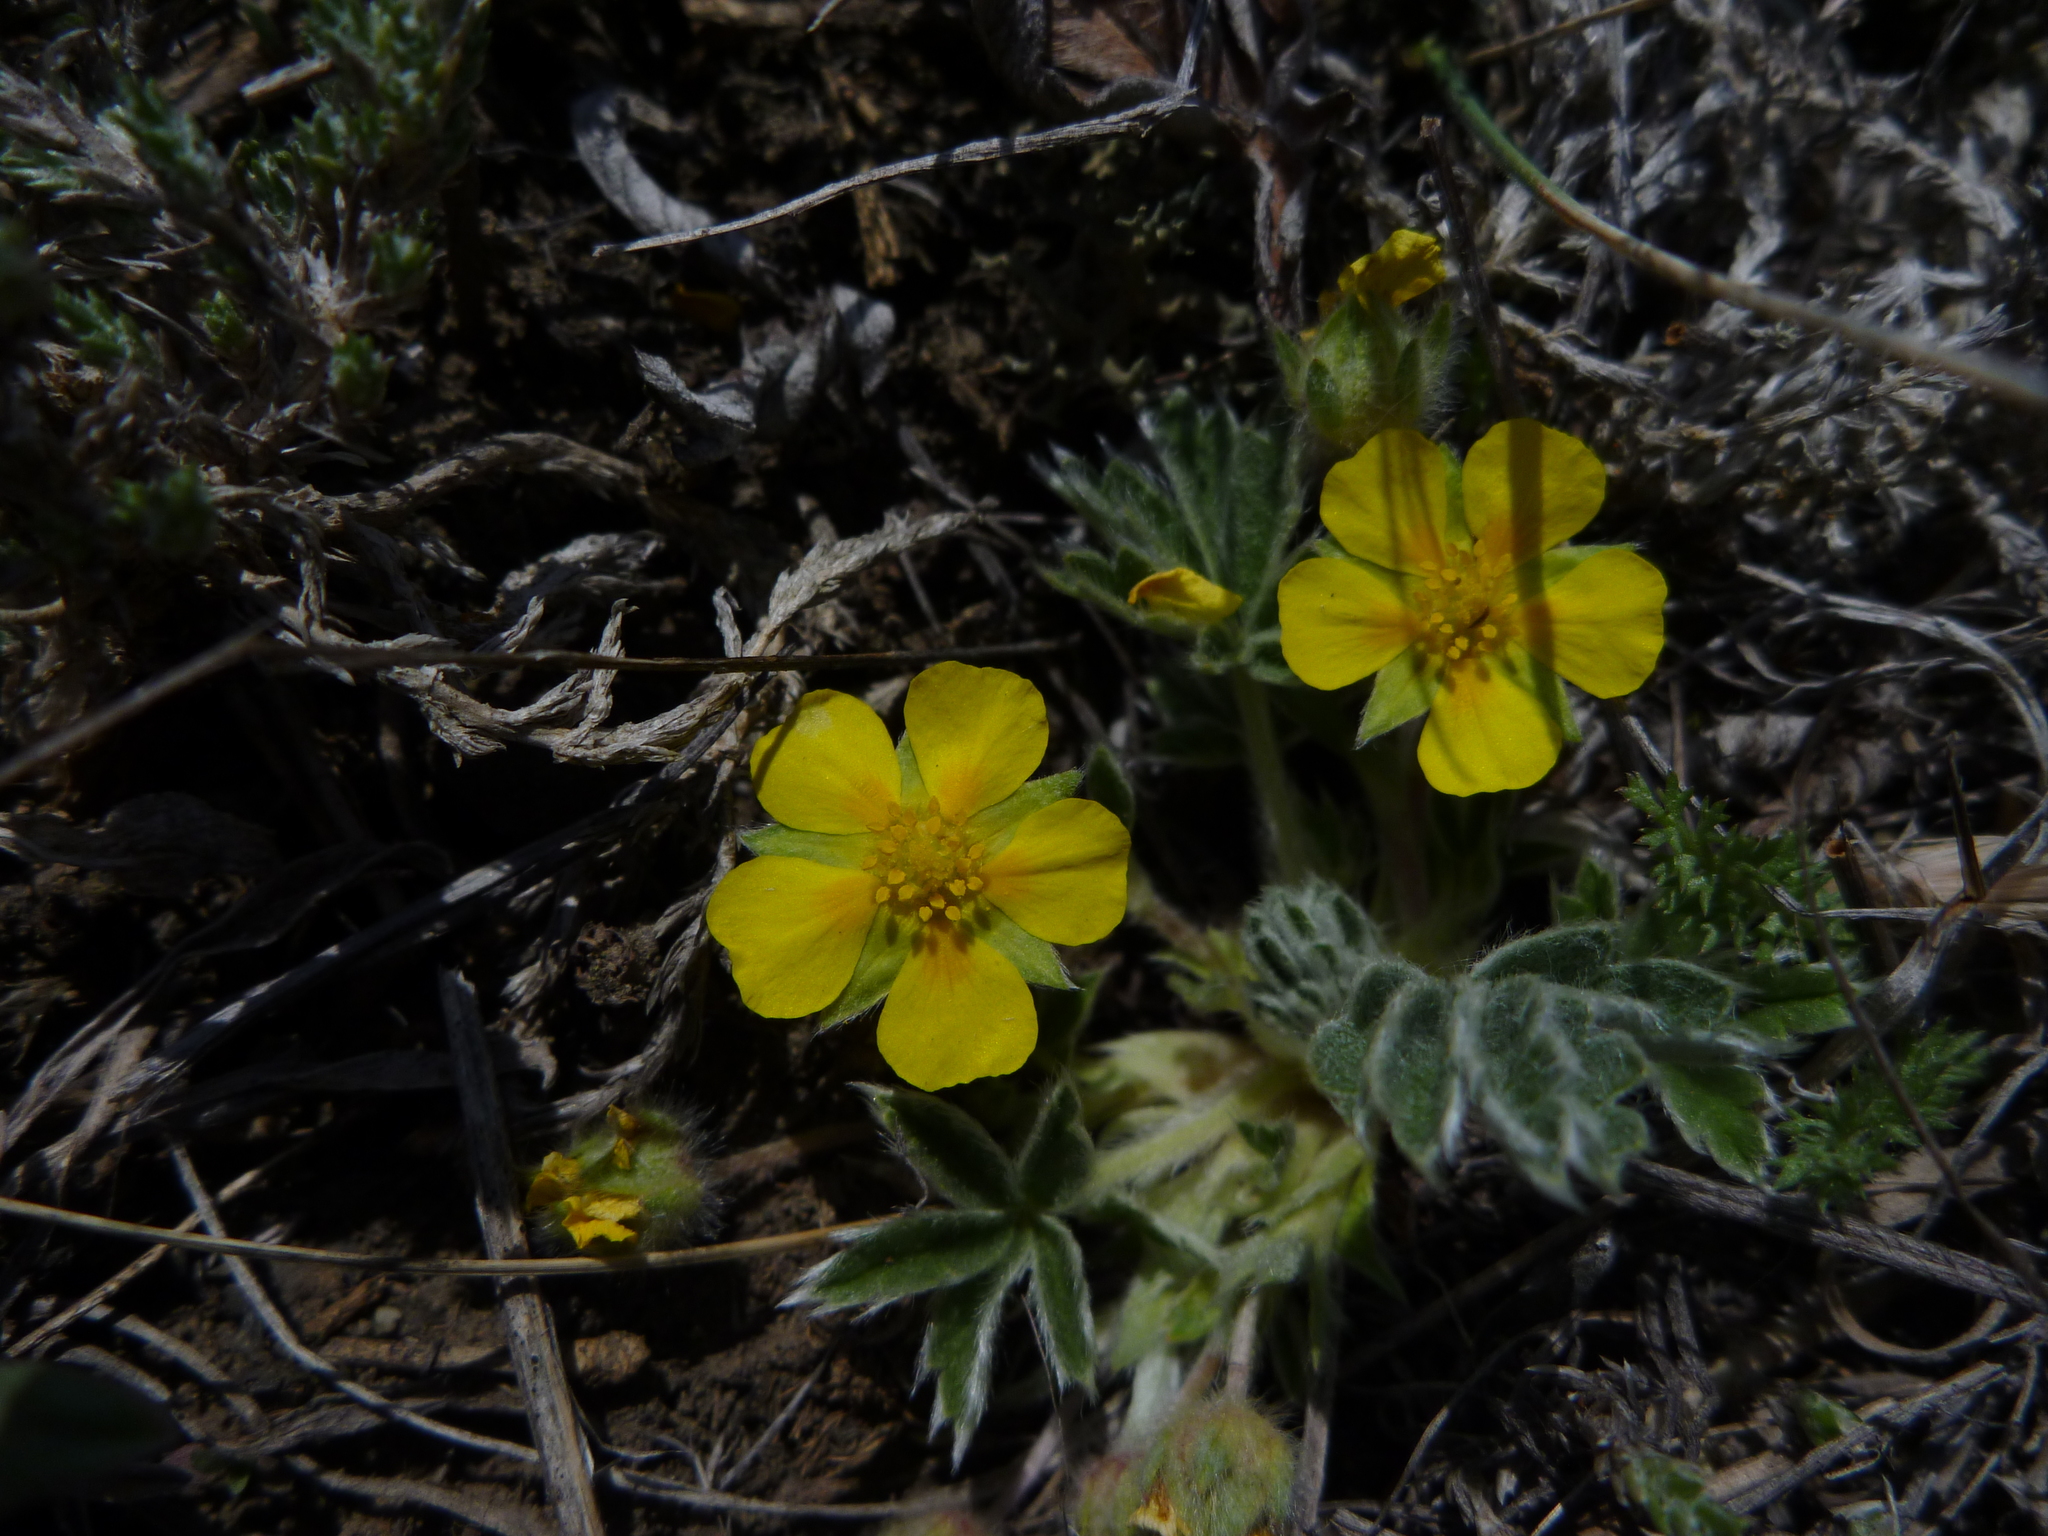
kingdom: Plantae
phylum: Tracheophyta
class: Magnoliopsida
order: Rosales
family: Rosaceae
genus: Potentilla
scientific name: Potentilla concinna
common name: Early cinquefoil
